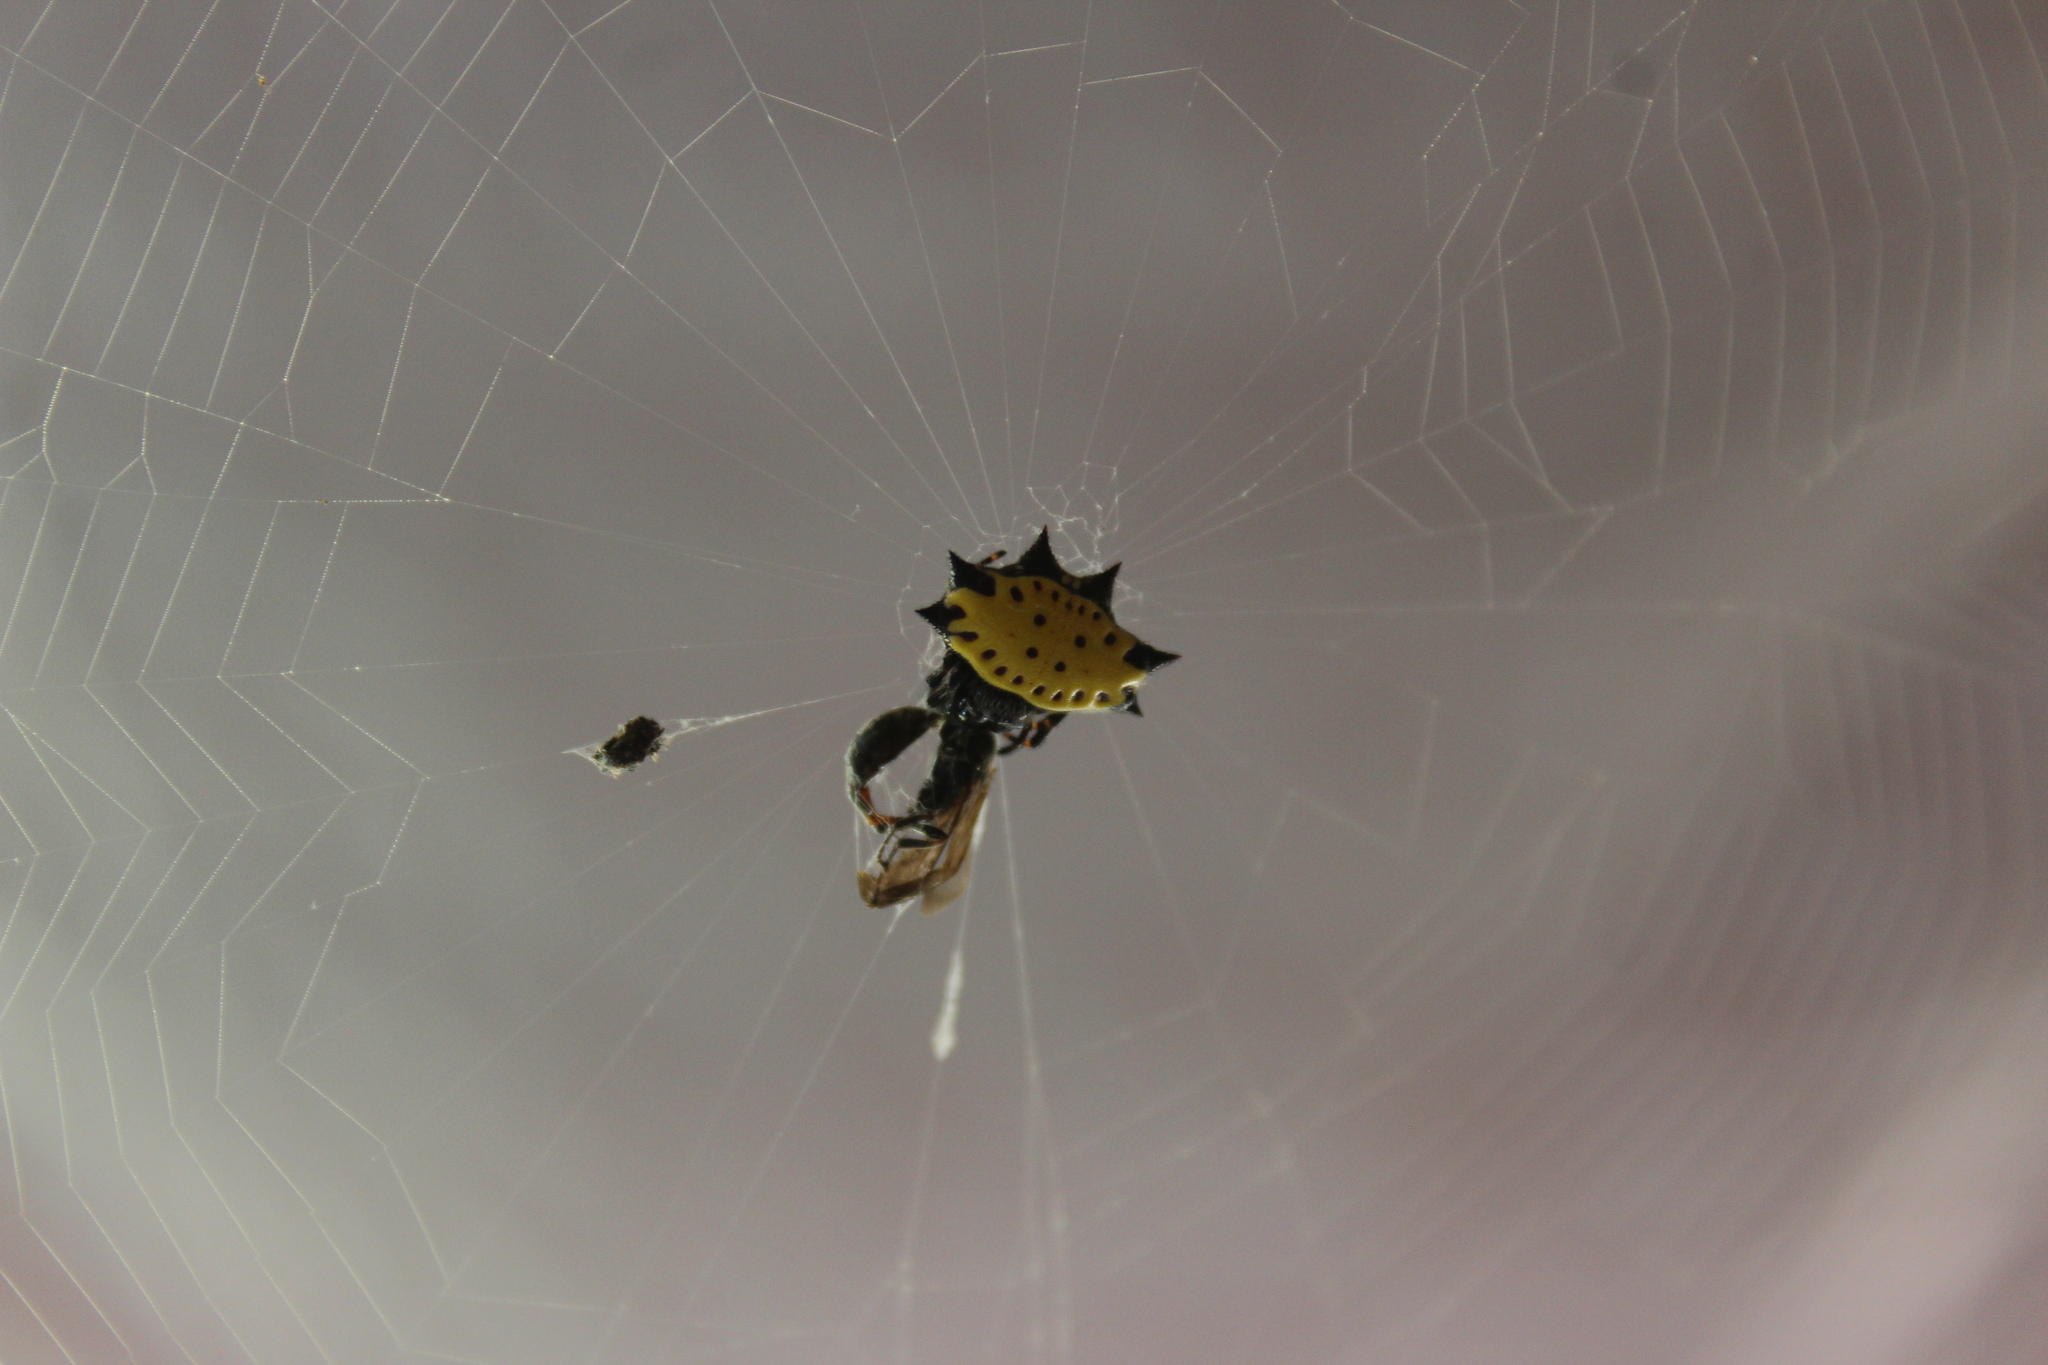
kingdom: Animalia
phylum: Arthropoda
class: Arachnida
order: Araneae
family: Araneidae
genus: Gasteracantha
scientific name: Gasteracantha cancriformis
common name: Orb weavers
